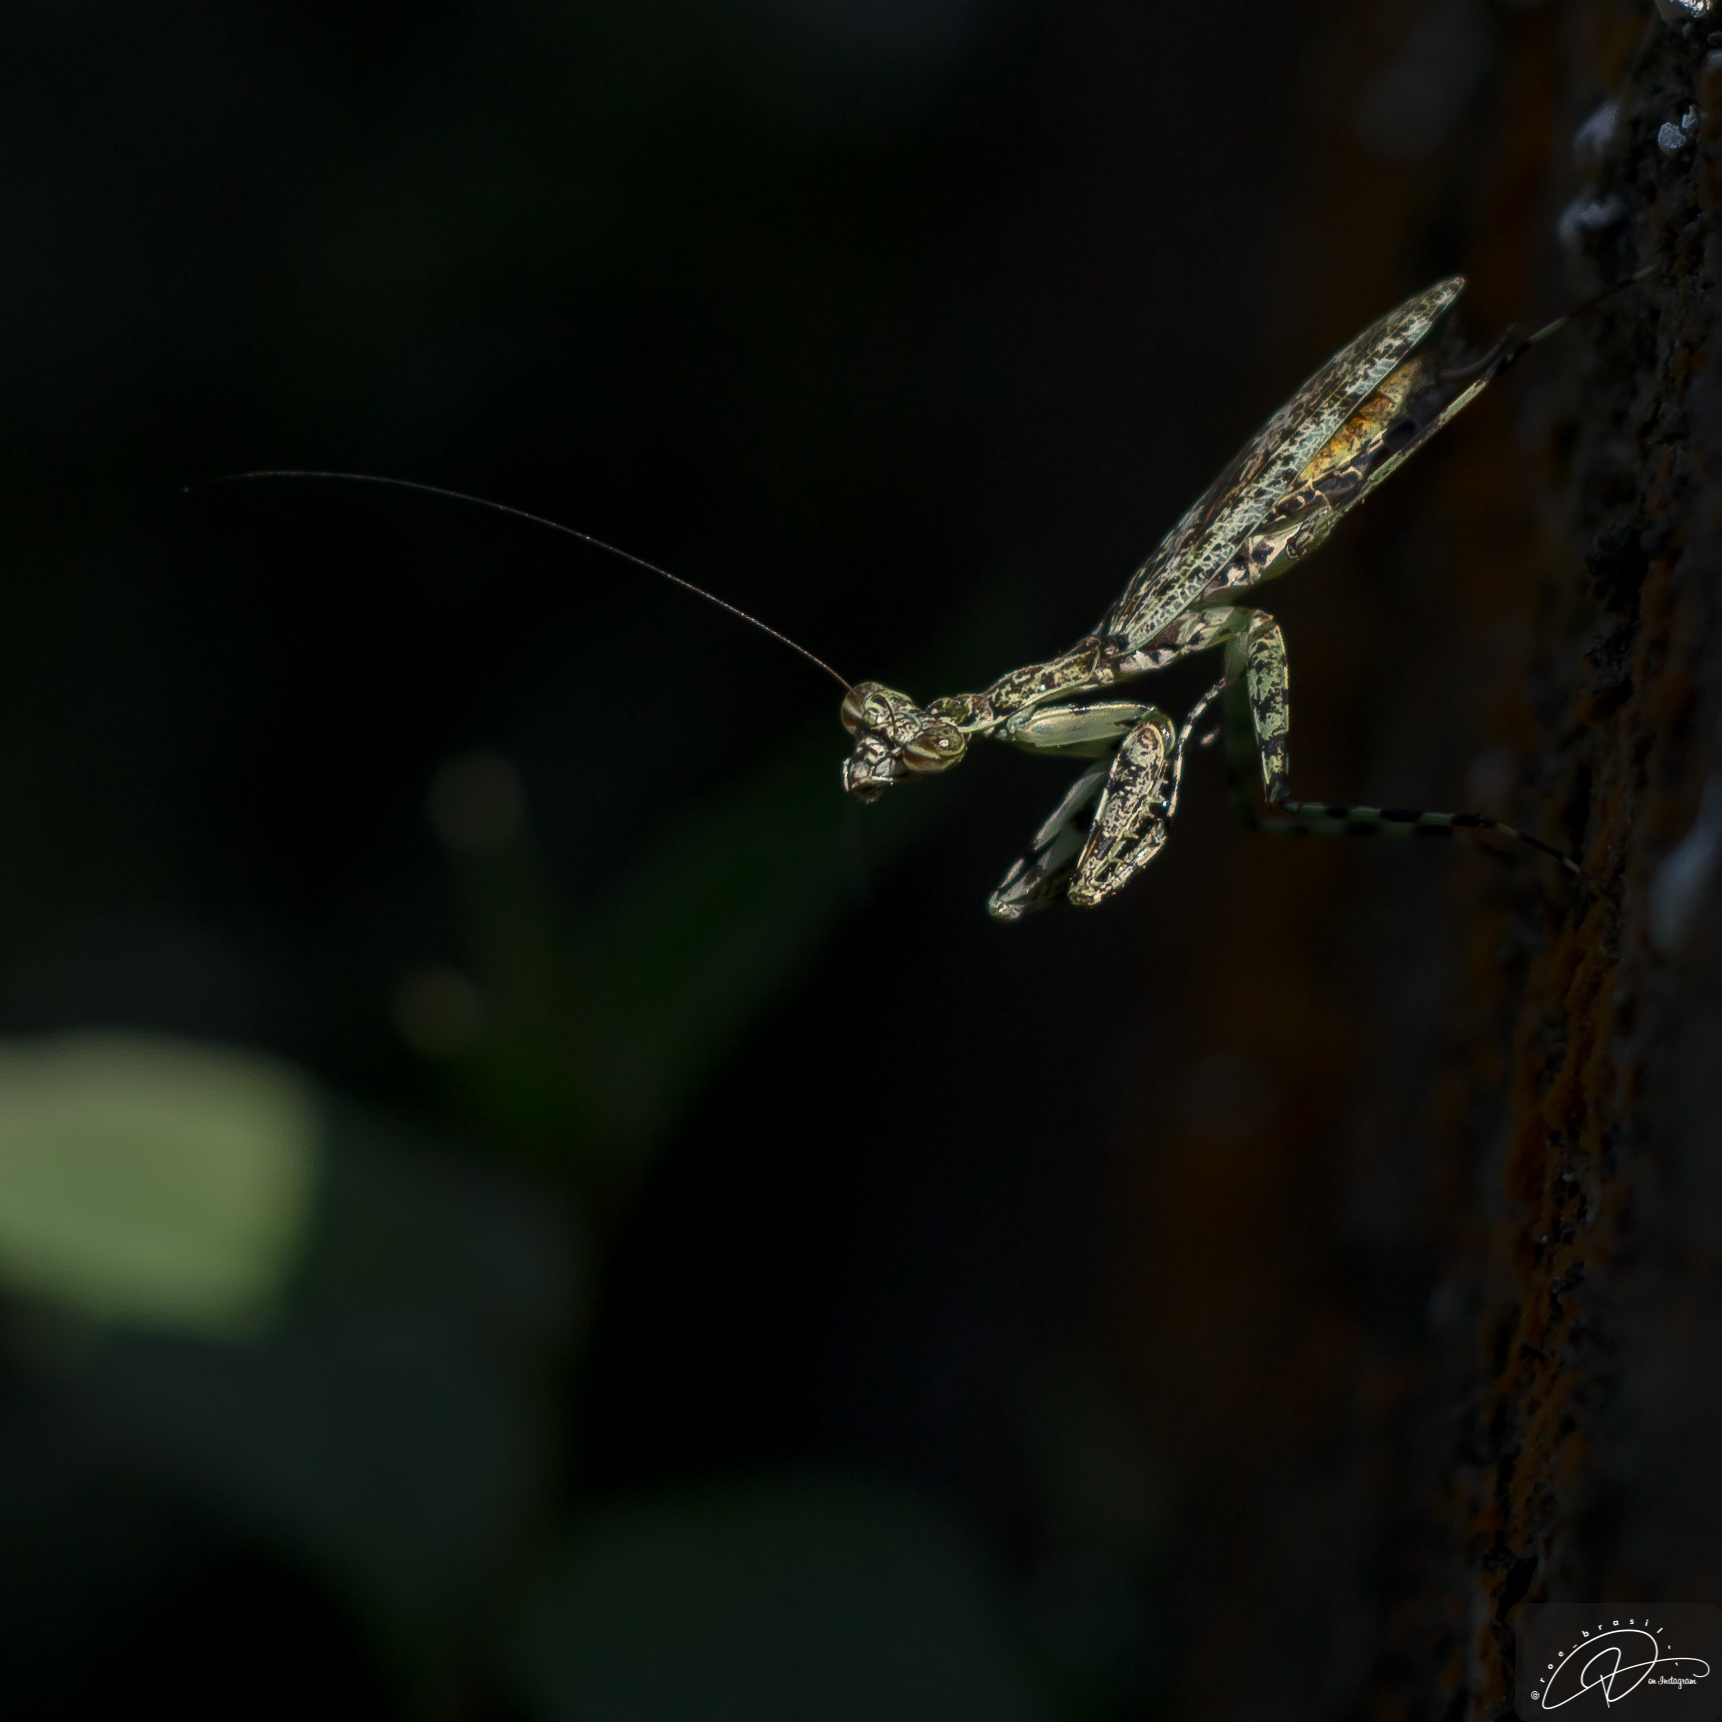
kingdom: Animalia
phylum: Arthropoda
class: Insecta
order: Mantodea
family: Liturgusidae
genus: Fuga
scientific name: Fuga annulipes
